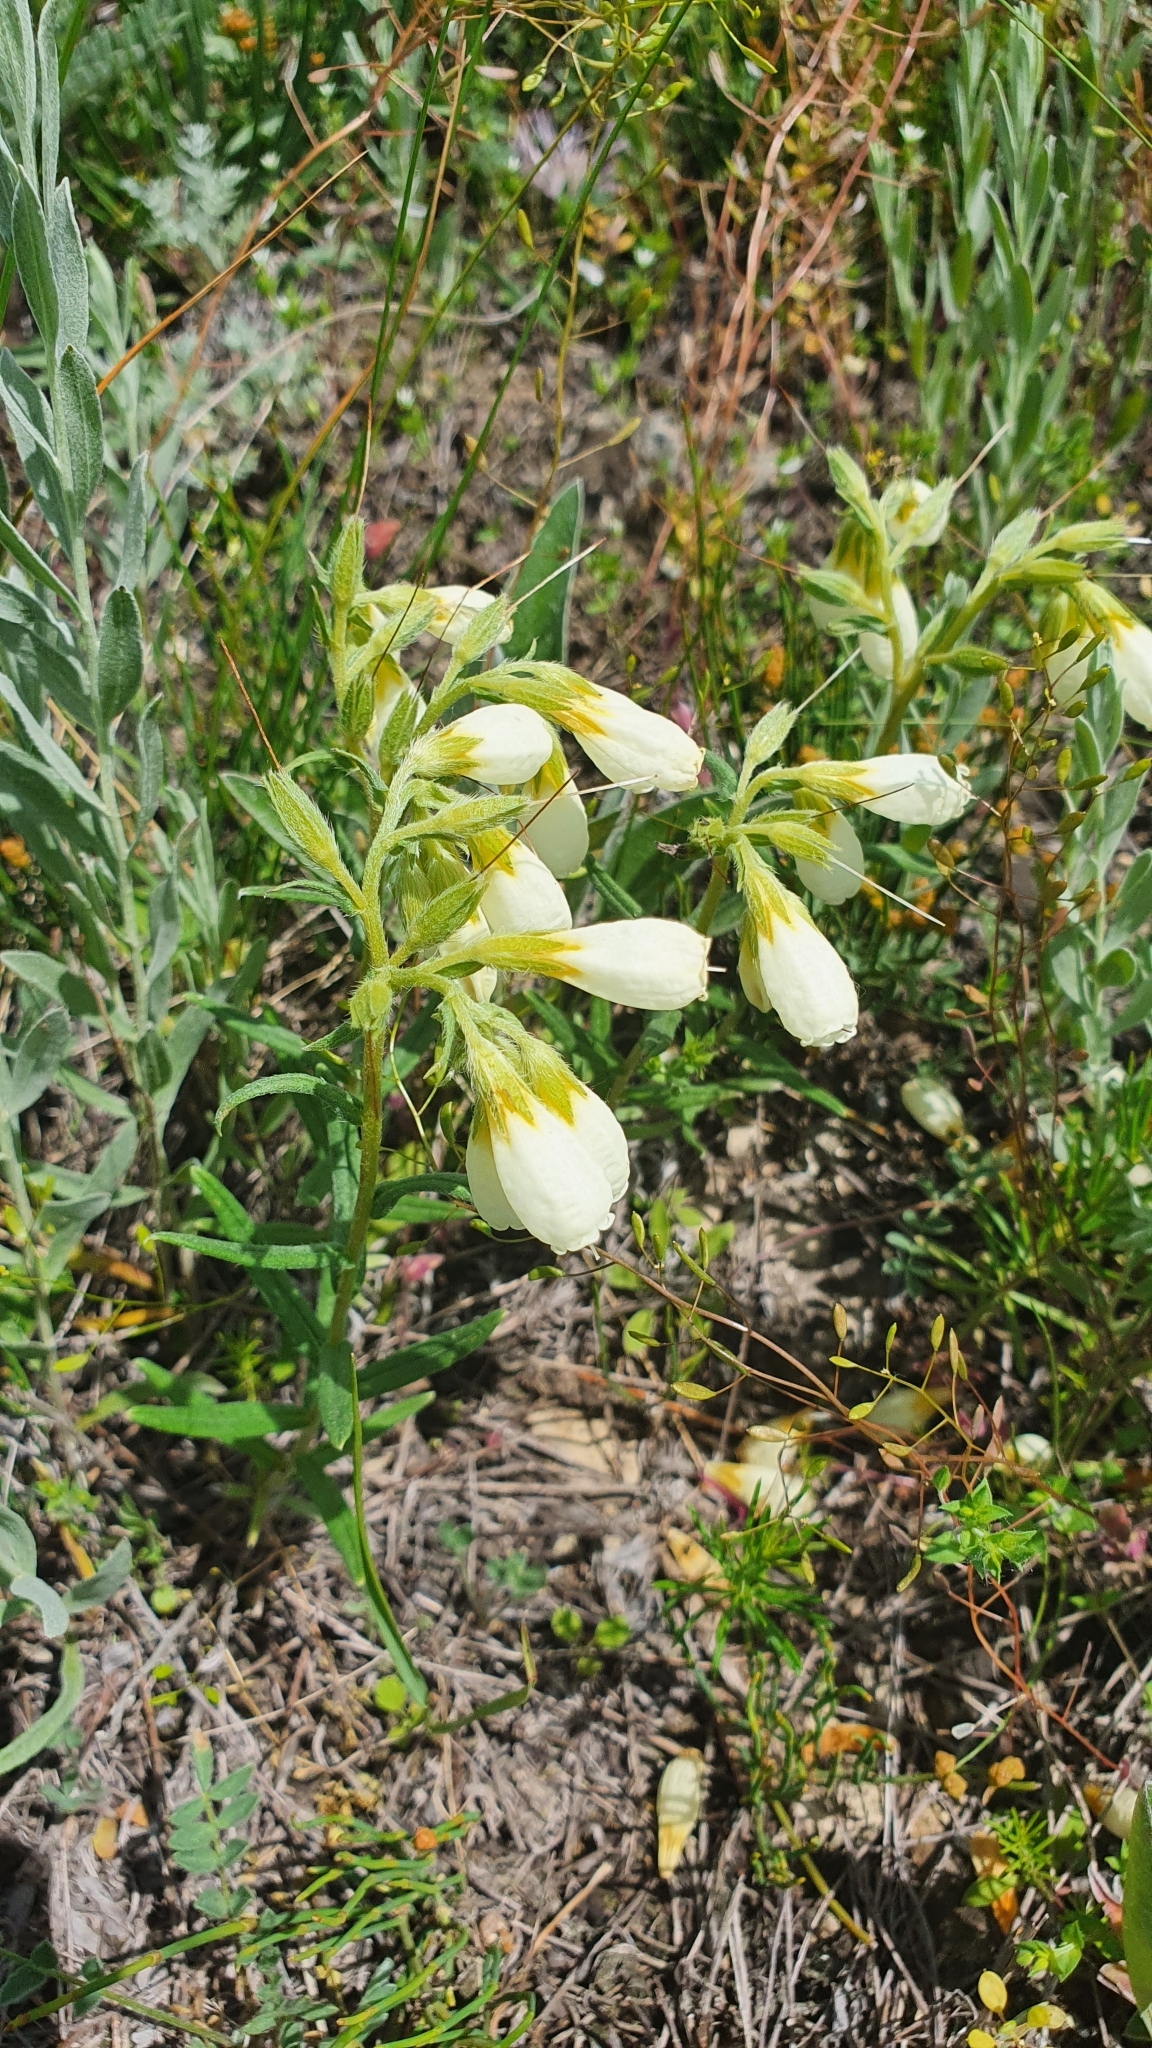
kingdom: Plantae
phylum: Tracheophyta
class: Magnoliopsida
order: Boraginales
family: Boraginaceae
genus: Onosma
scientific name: Onosma simplicissima
